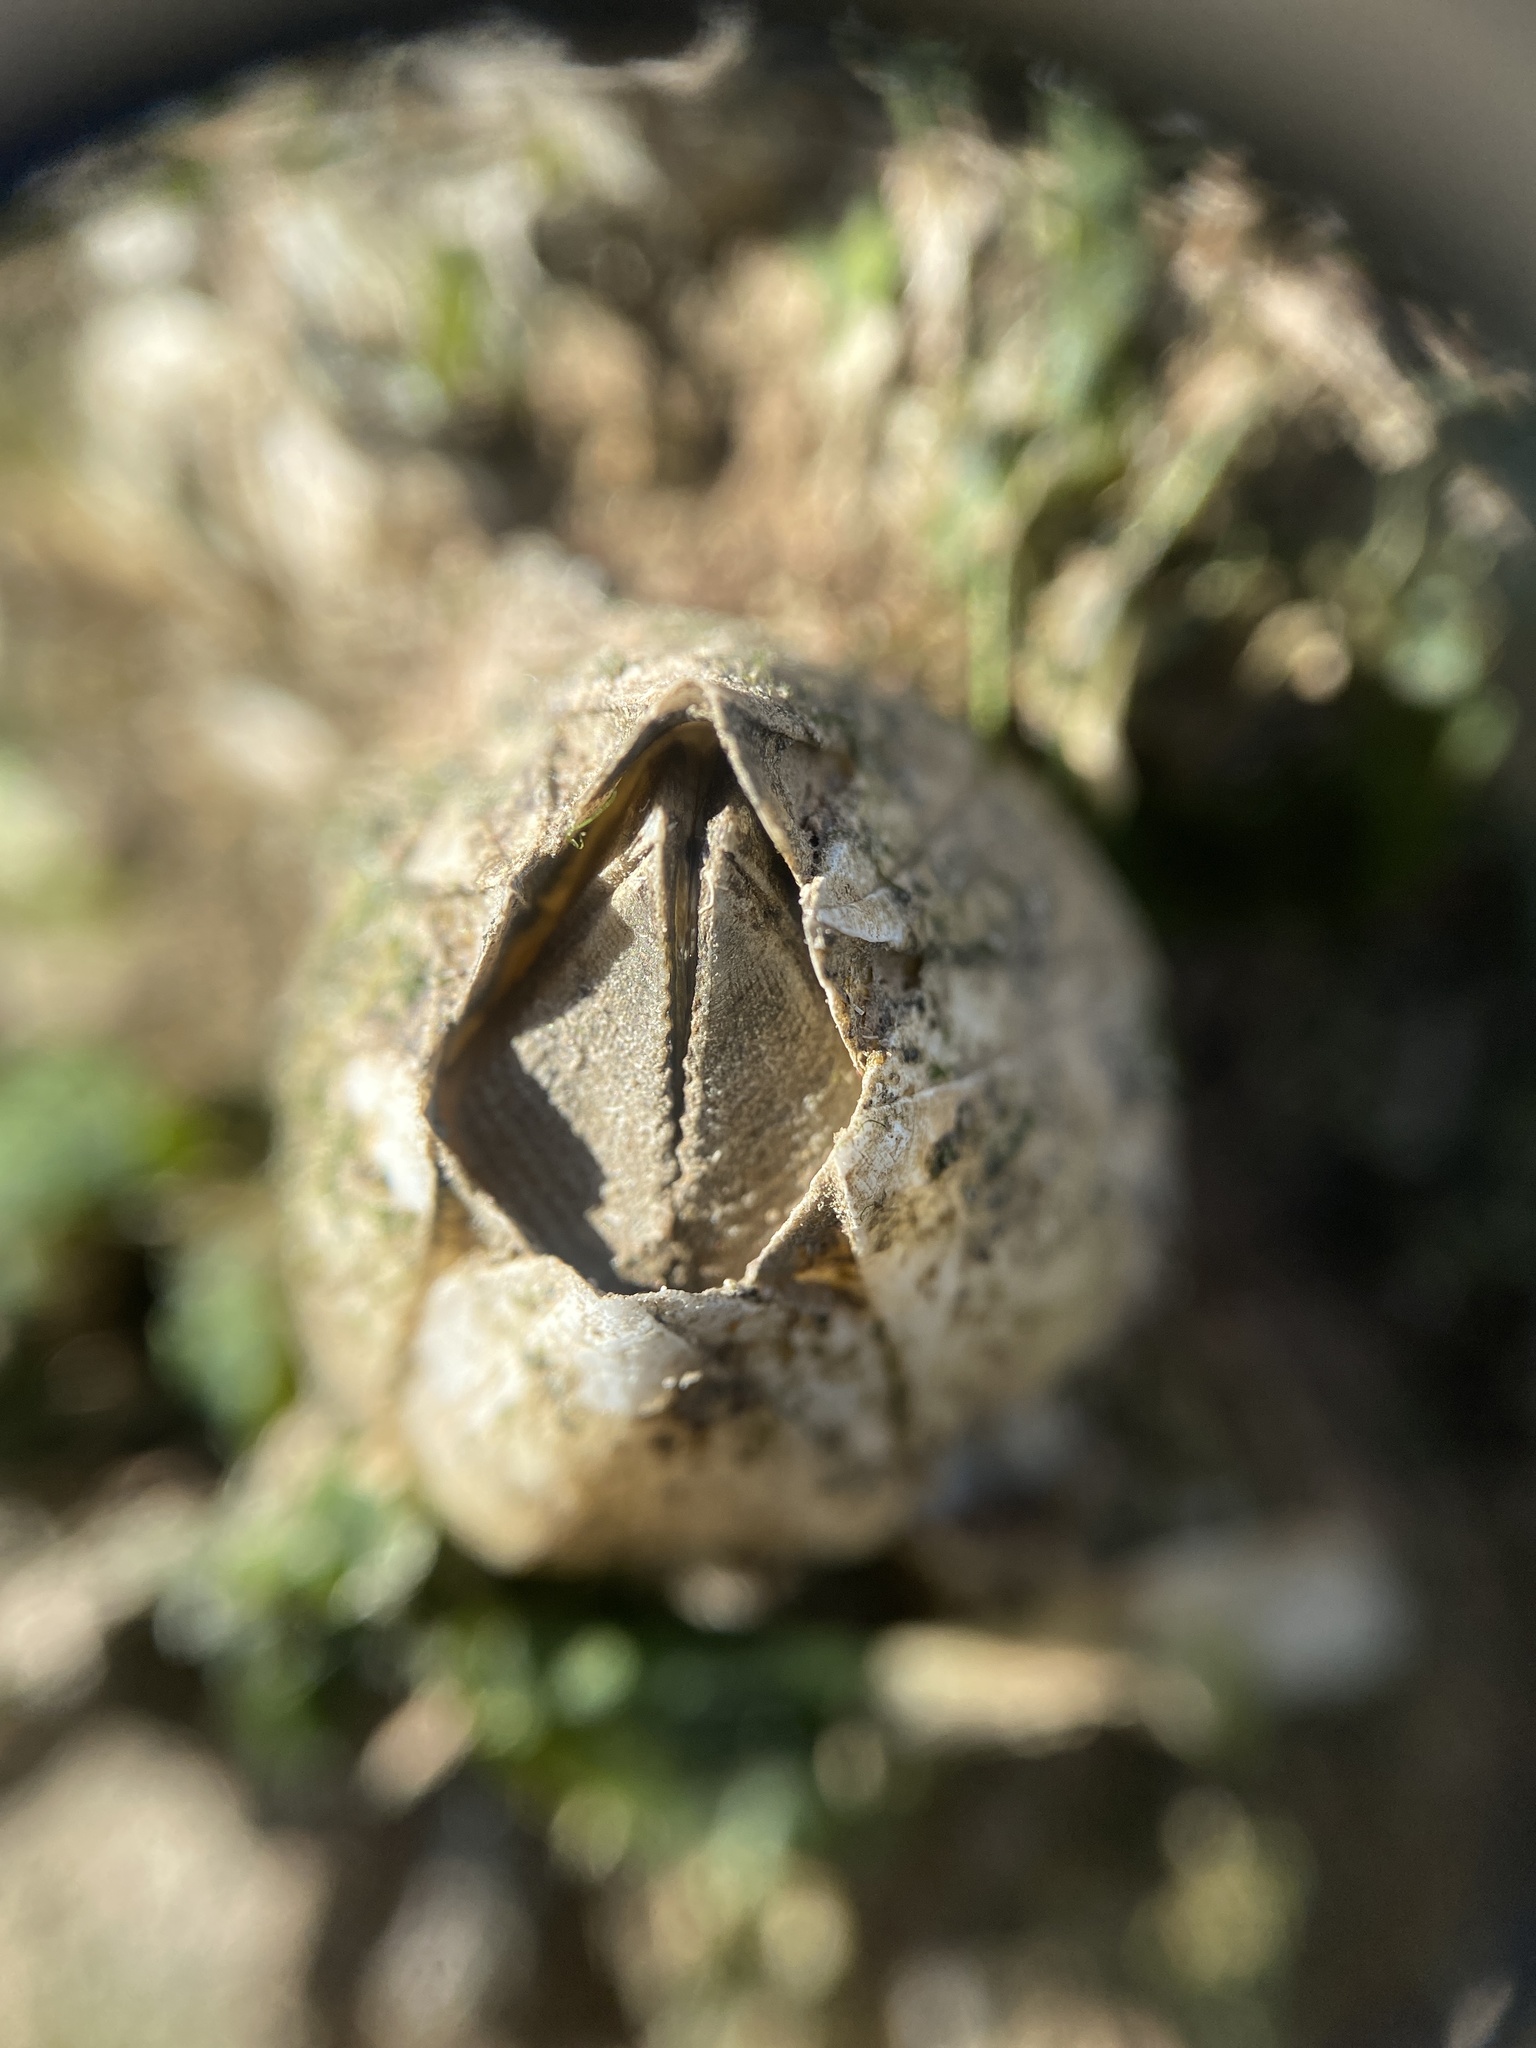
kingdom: Animalia
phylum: Arthropoda
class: Maxillopoda
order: Sessilia
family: Balanidae
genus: Amphibalanus
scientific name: Amphibalanus improvisus
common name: Bay barnacle
